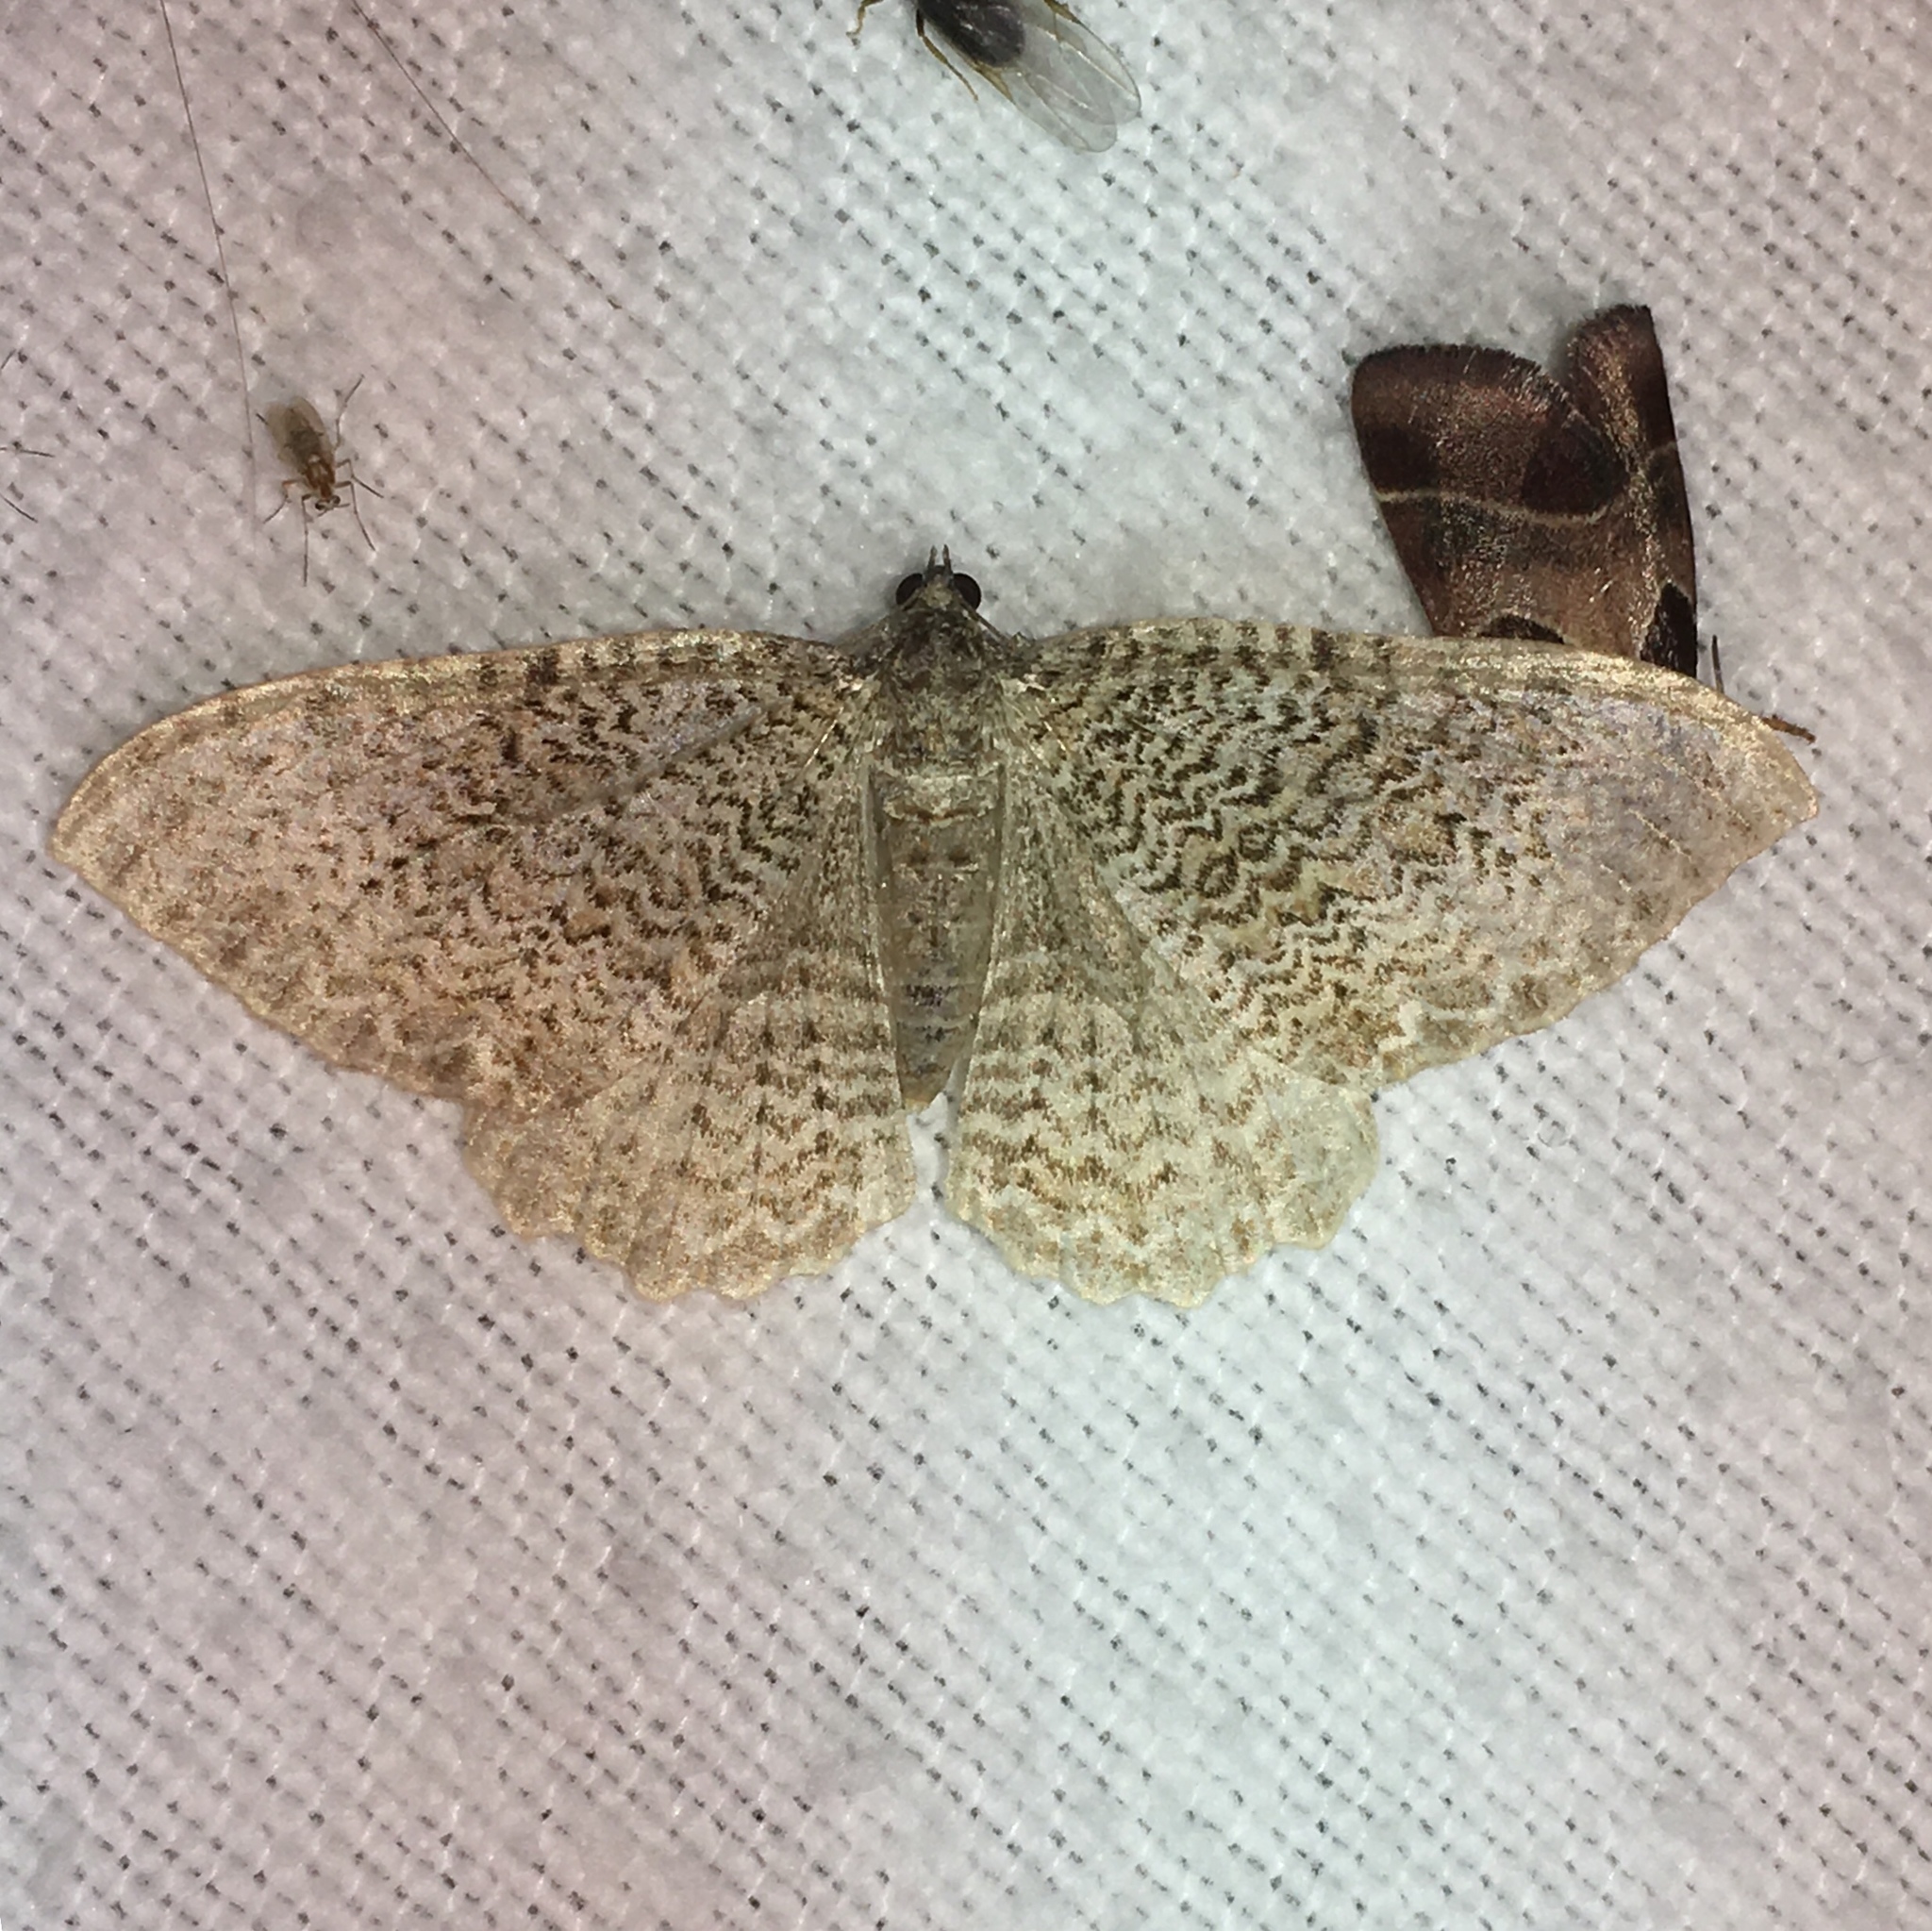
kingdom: Animalia
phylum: Arthropoda
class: Insecta
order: Lepidoptera
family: Geometridae
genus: Rheumaptera
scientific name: Rheumaptera prunivorata
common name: Cherry scallop shell moth
